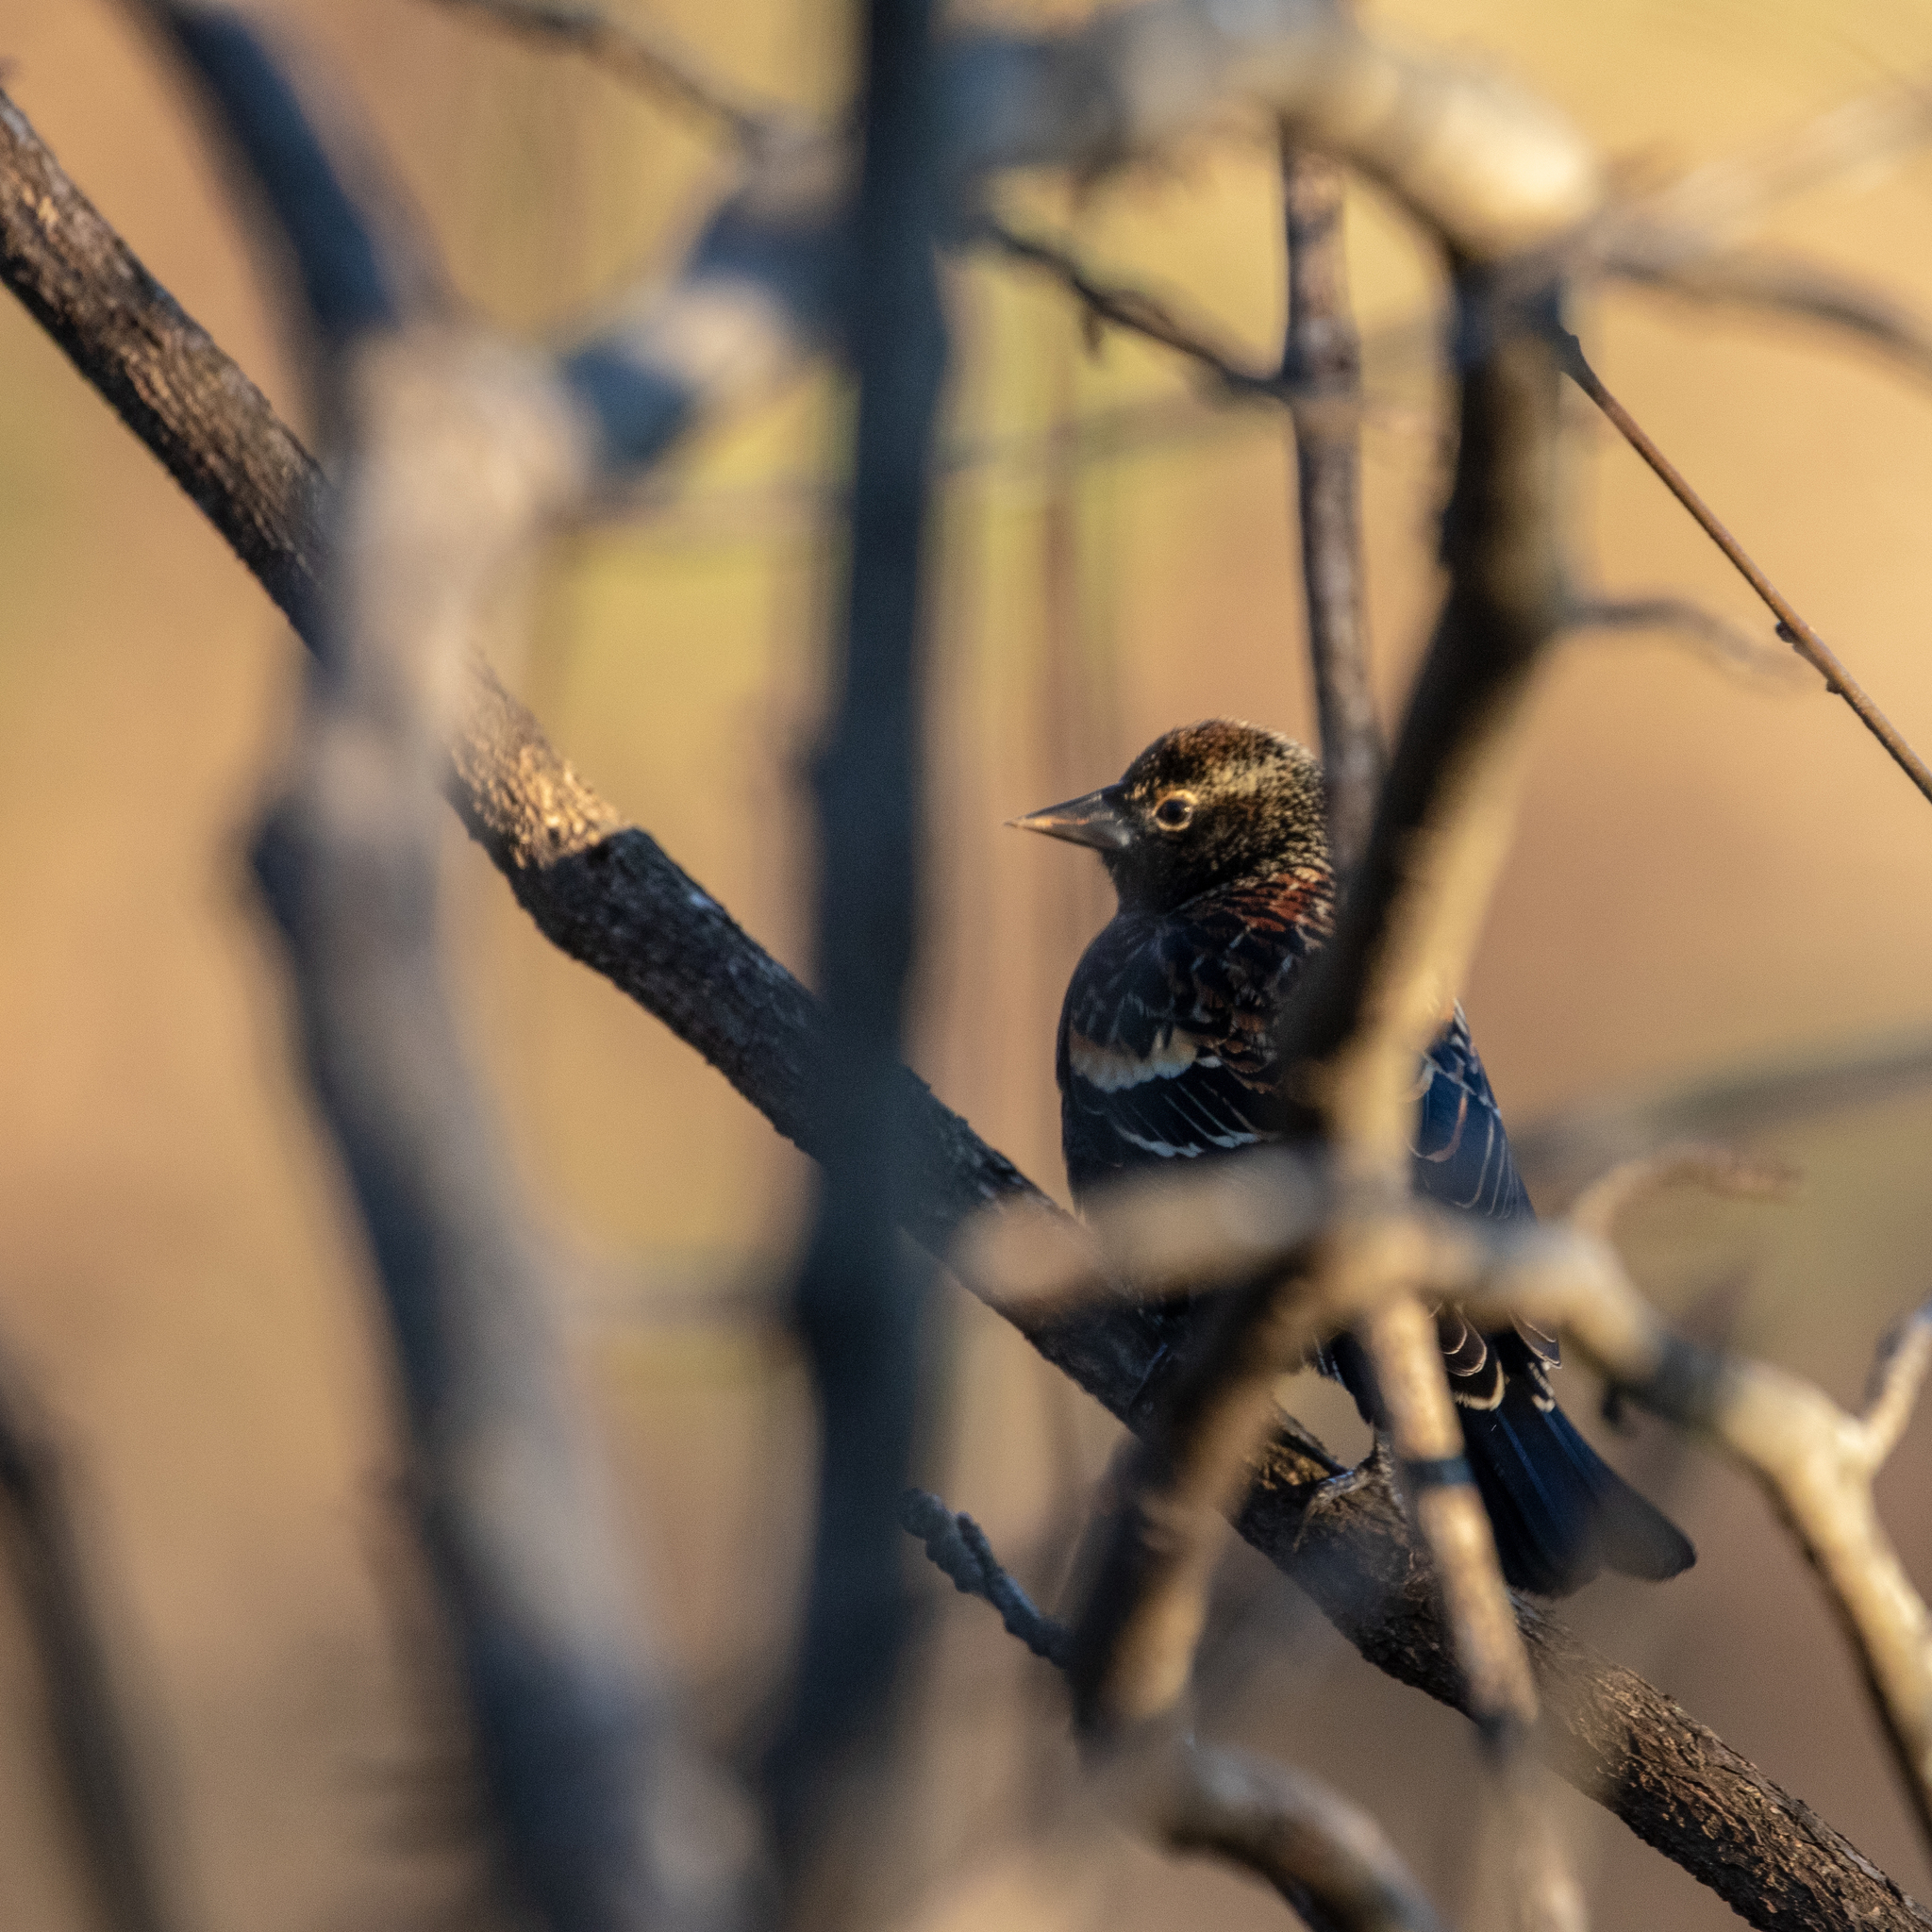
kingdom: Animalia
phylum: Chordata
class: Aves
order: Passeriformes
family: Icteridae
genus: Agelaius
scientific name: Agelaius phoeniceus
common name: Red-winged blackbird
